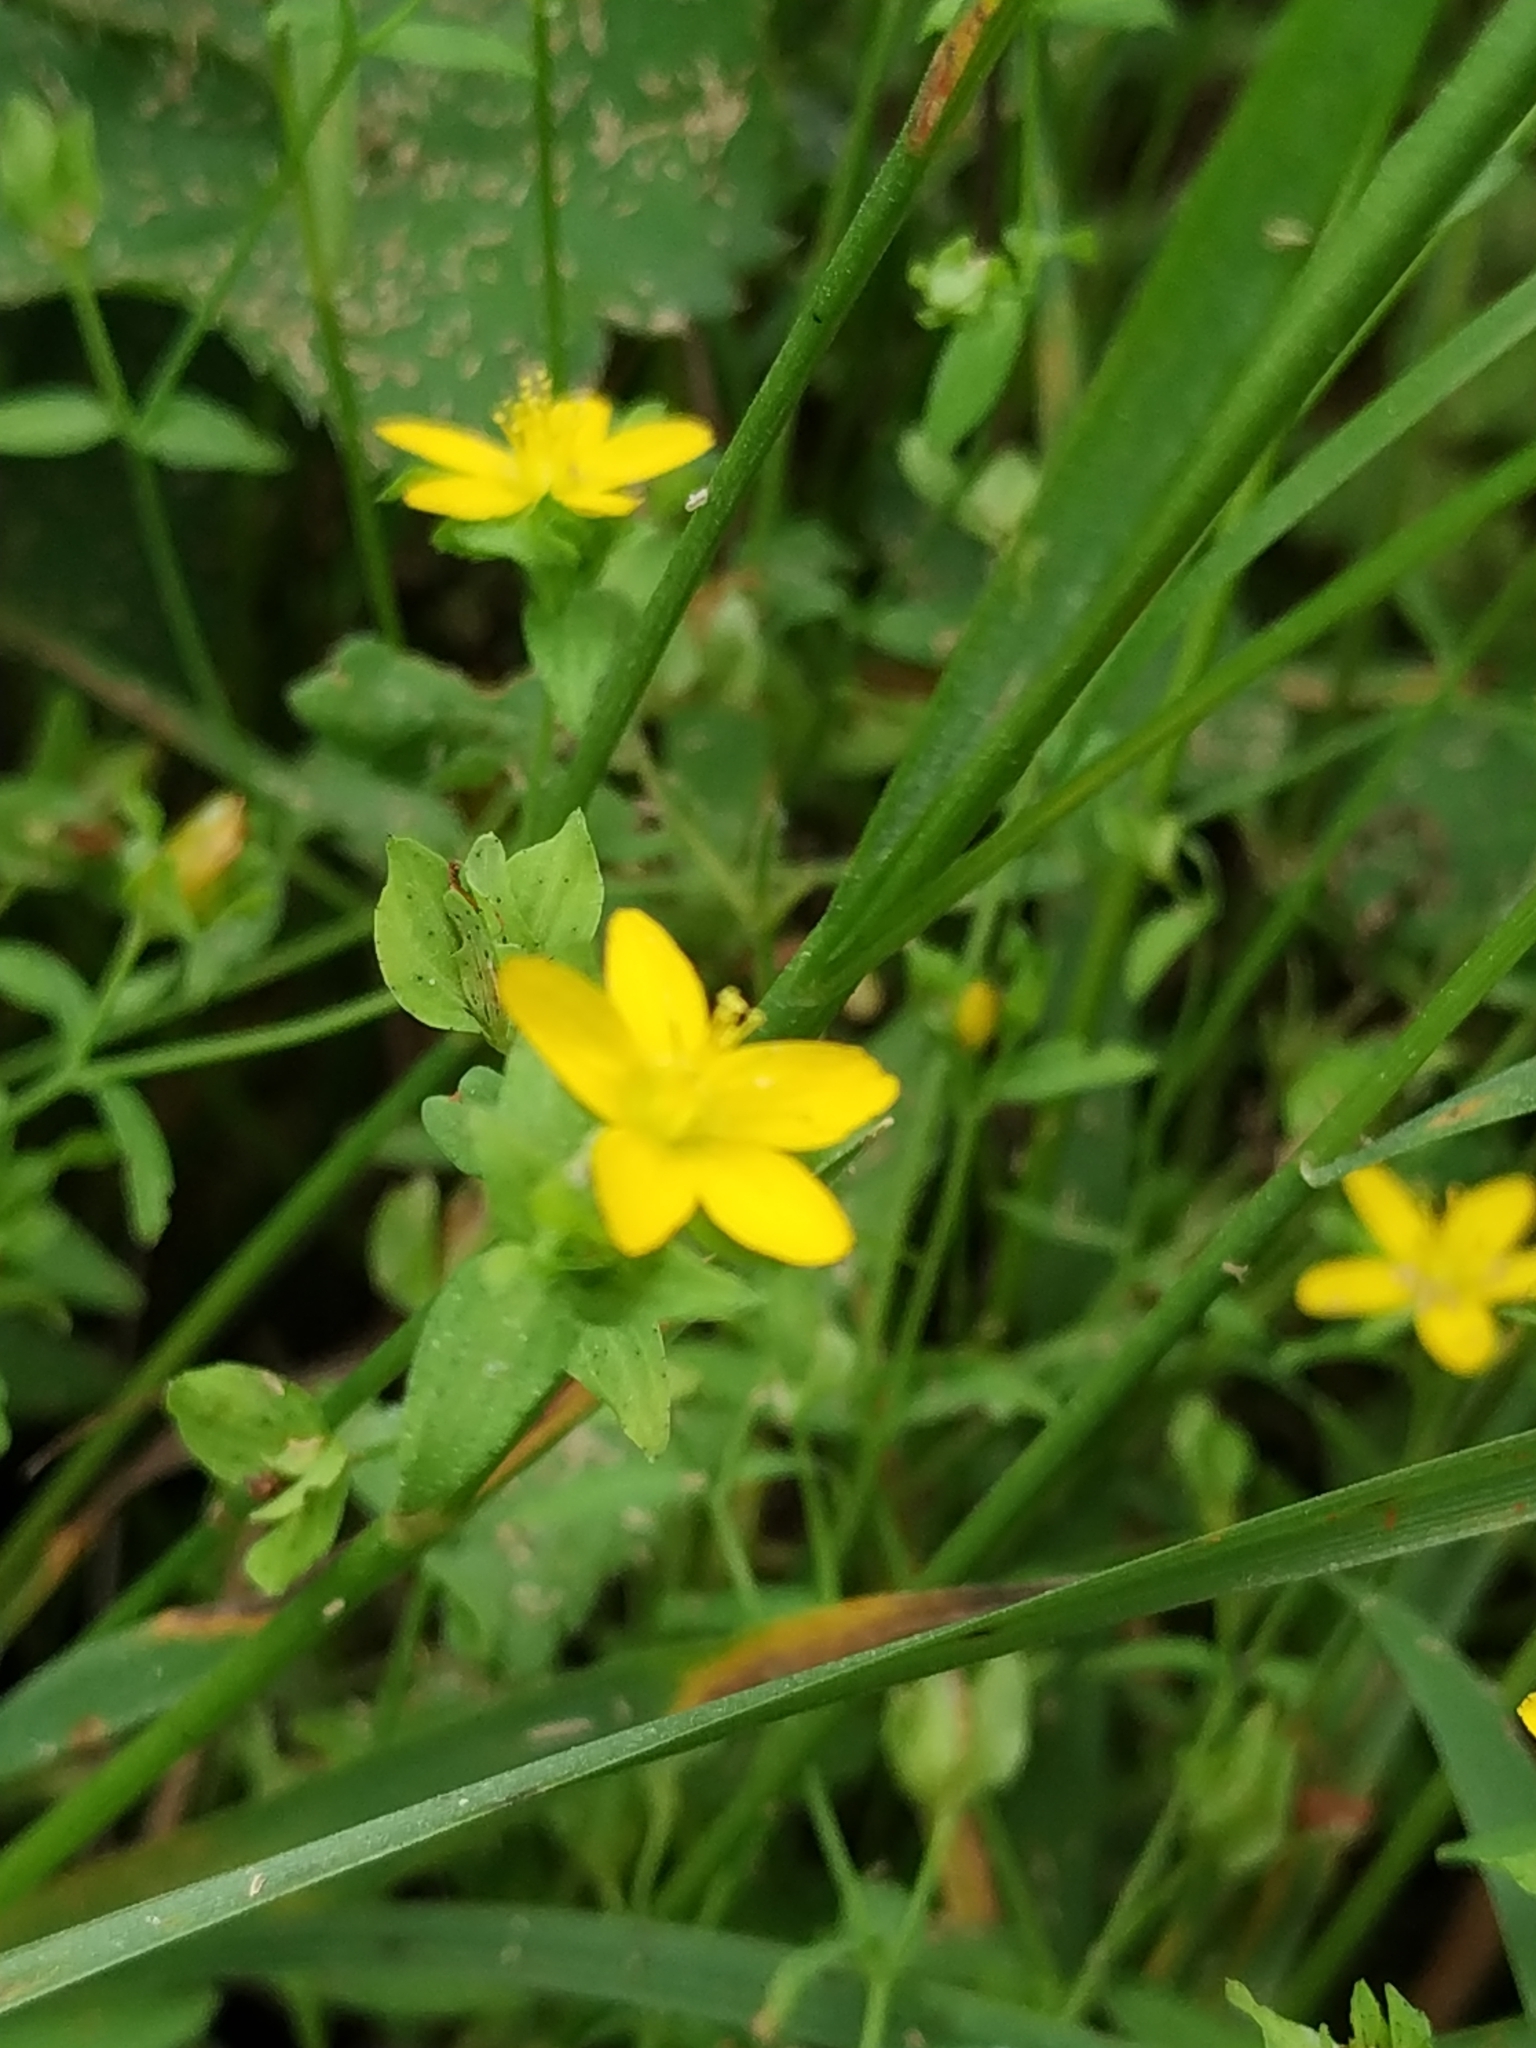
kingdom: Plantae
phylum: Tracheophyta
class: Magnoliopsida
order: Malpighiales
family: Hypericaceae
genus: Hypericum
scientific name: Hypericum humifusum
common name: Trailing st. john's-wort
